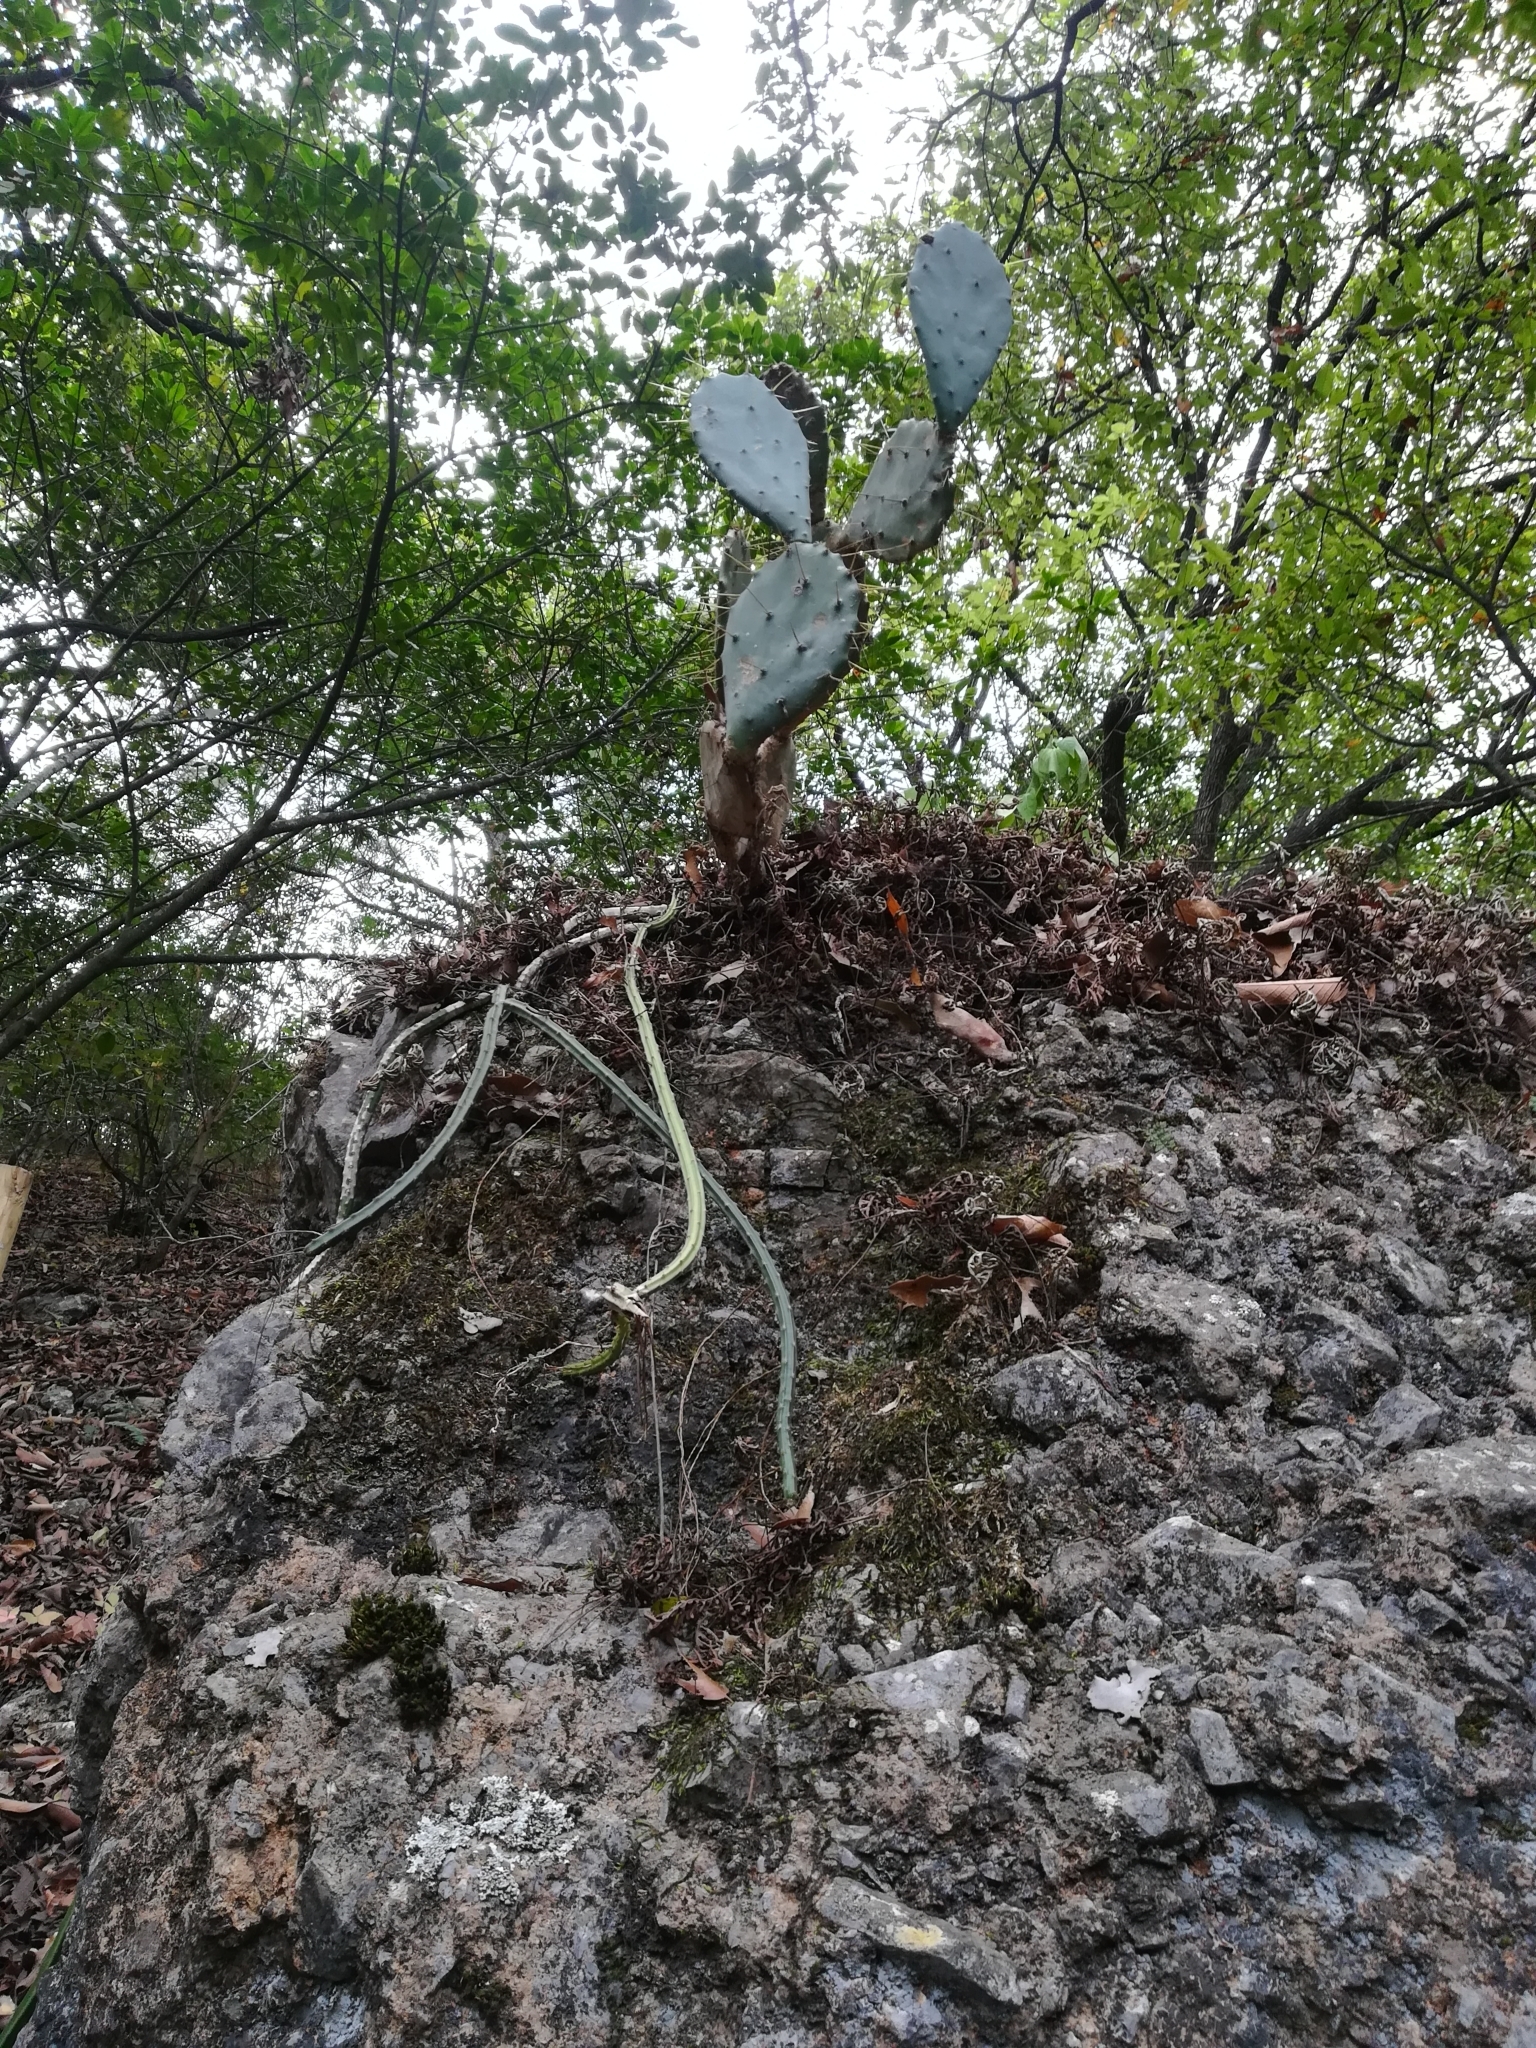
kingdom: Plantae
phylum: Tracheophyta
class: Magnoliopsida
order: Caryophyllales
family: Cactaceae
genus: Opuntia
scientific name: Opuntia engelmannii
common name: Cactus-apple
